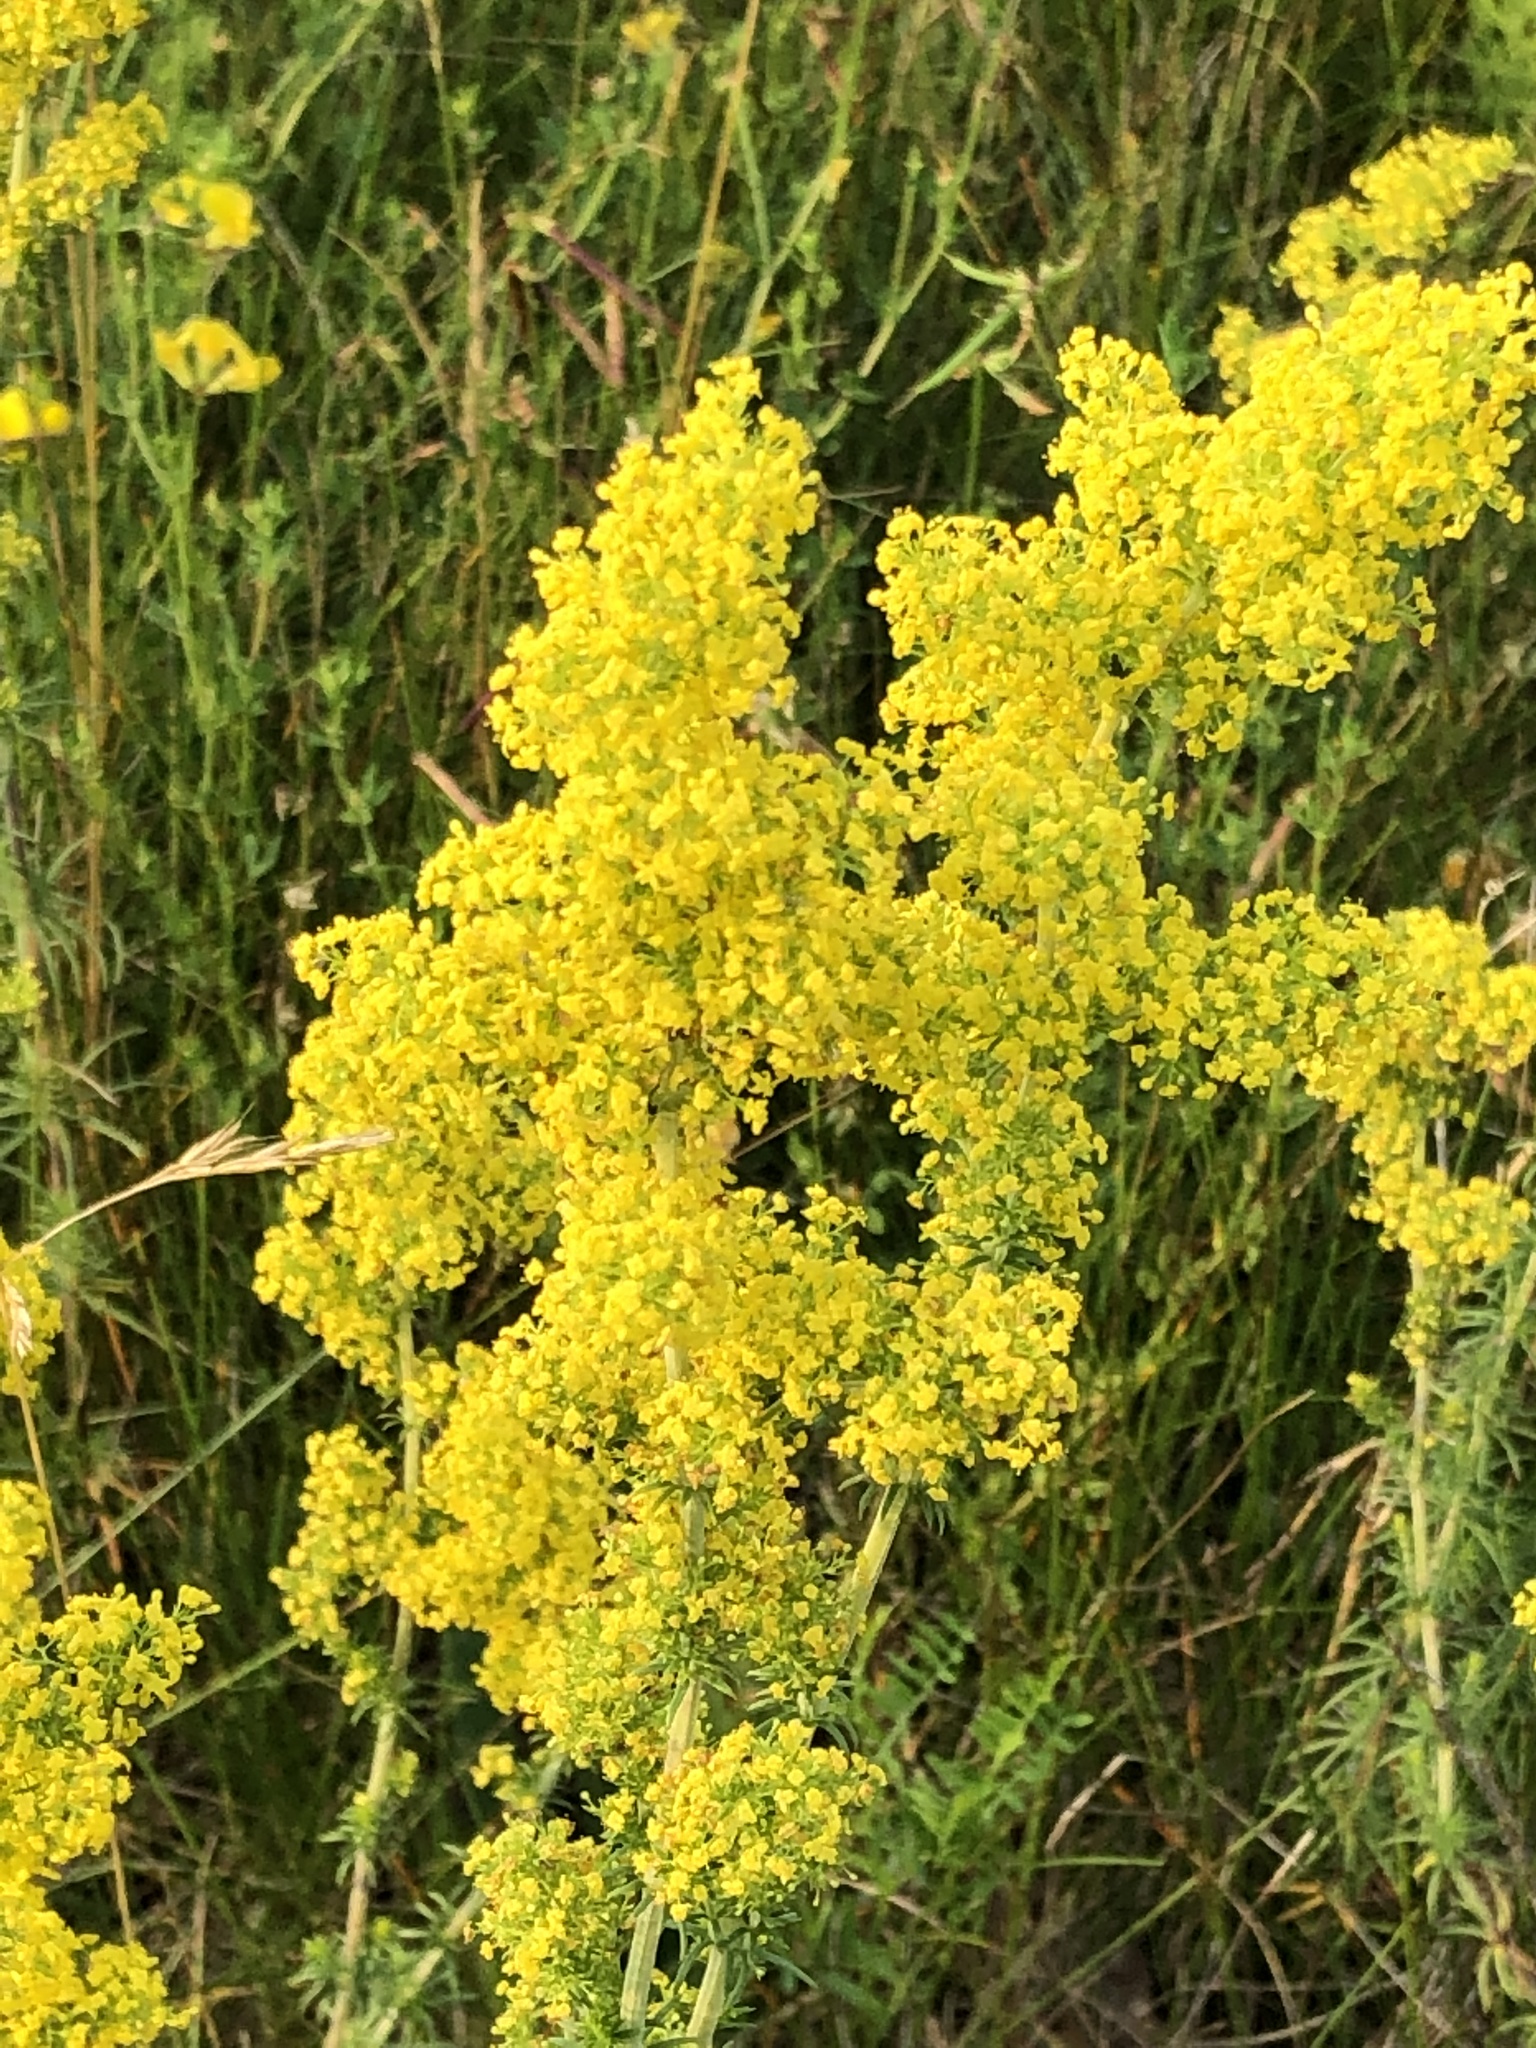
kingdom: Plantae
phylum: Tracheophyta
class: Magnoliopsida
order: Gentianales
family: Rubiaceae
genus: Galium
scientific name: Galium verum
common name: Lady's bedstraw
